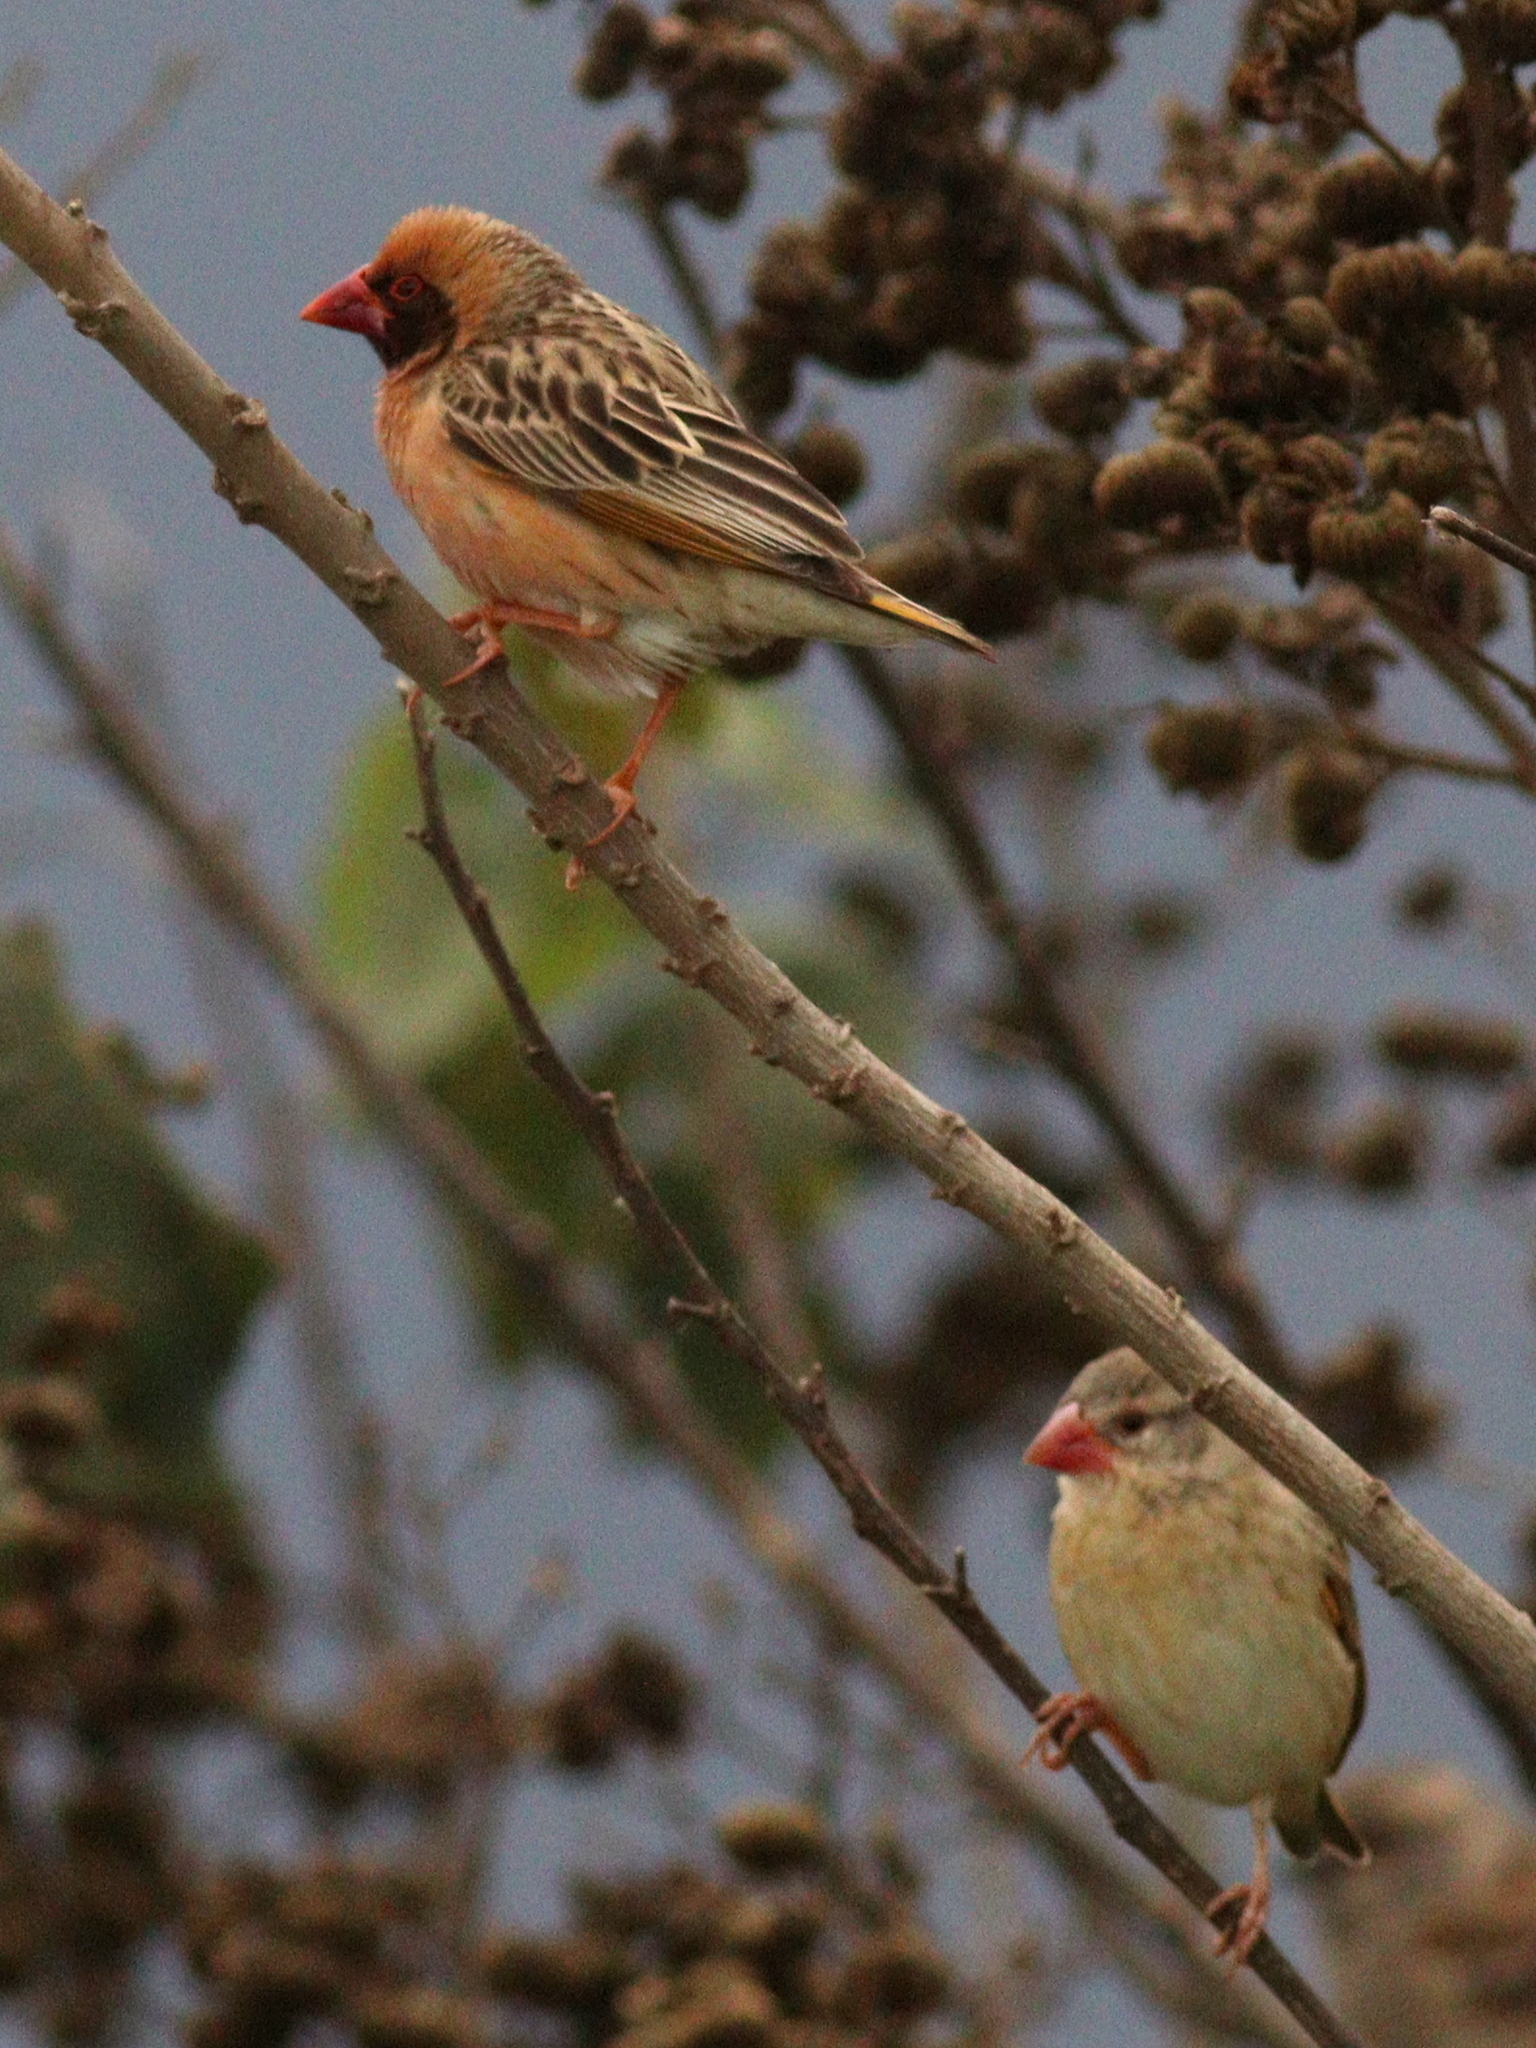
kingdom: Animalia
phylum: Chordata
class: Aves
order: Passeriformes
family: Ploceidae
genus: Quelea
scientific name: Quelea quelea
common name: Red-billed quelea
